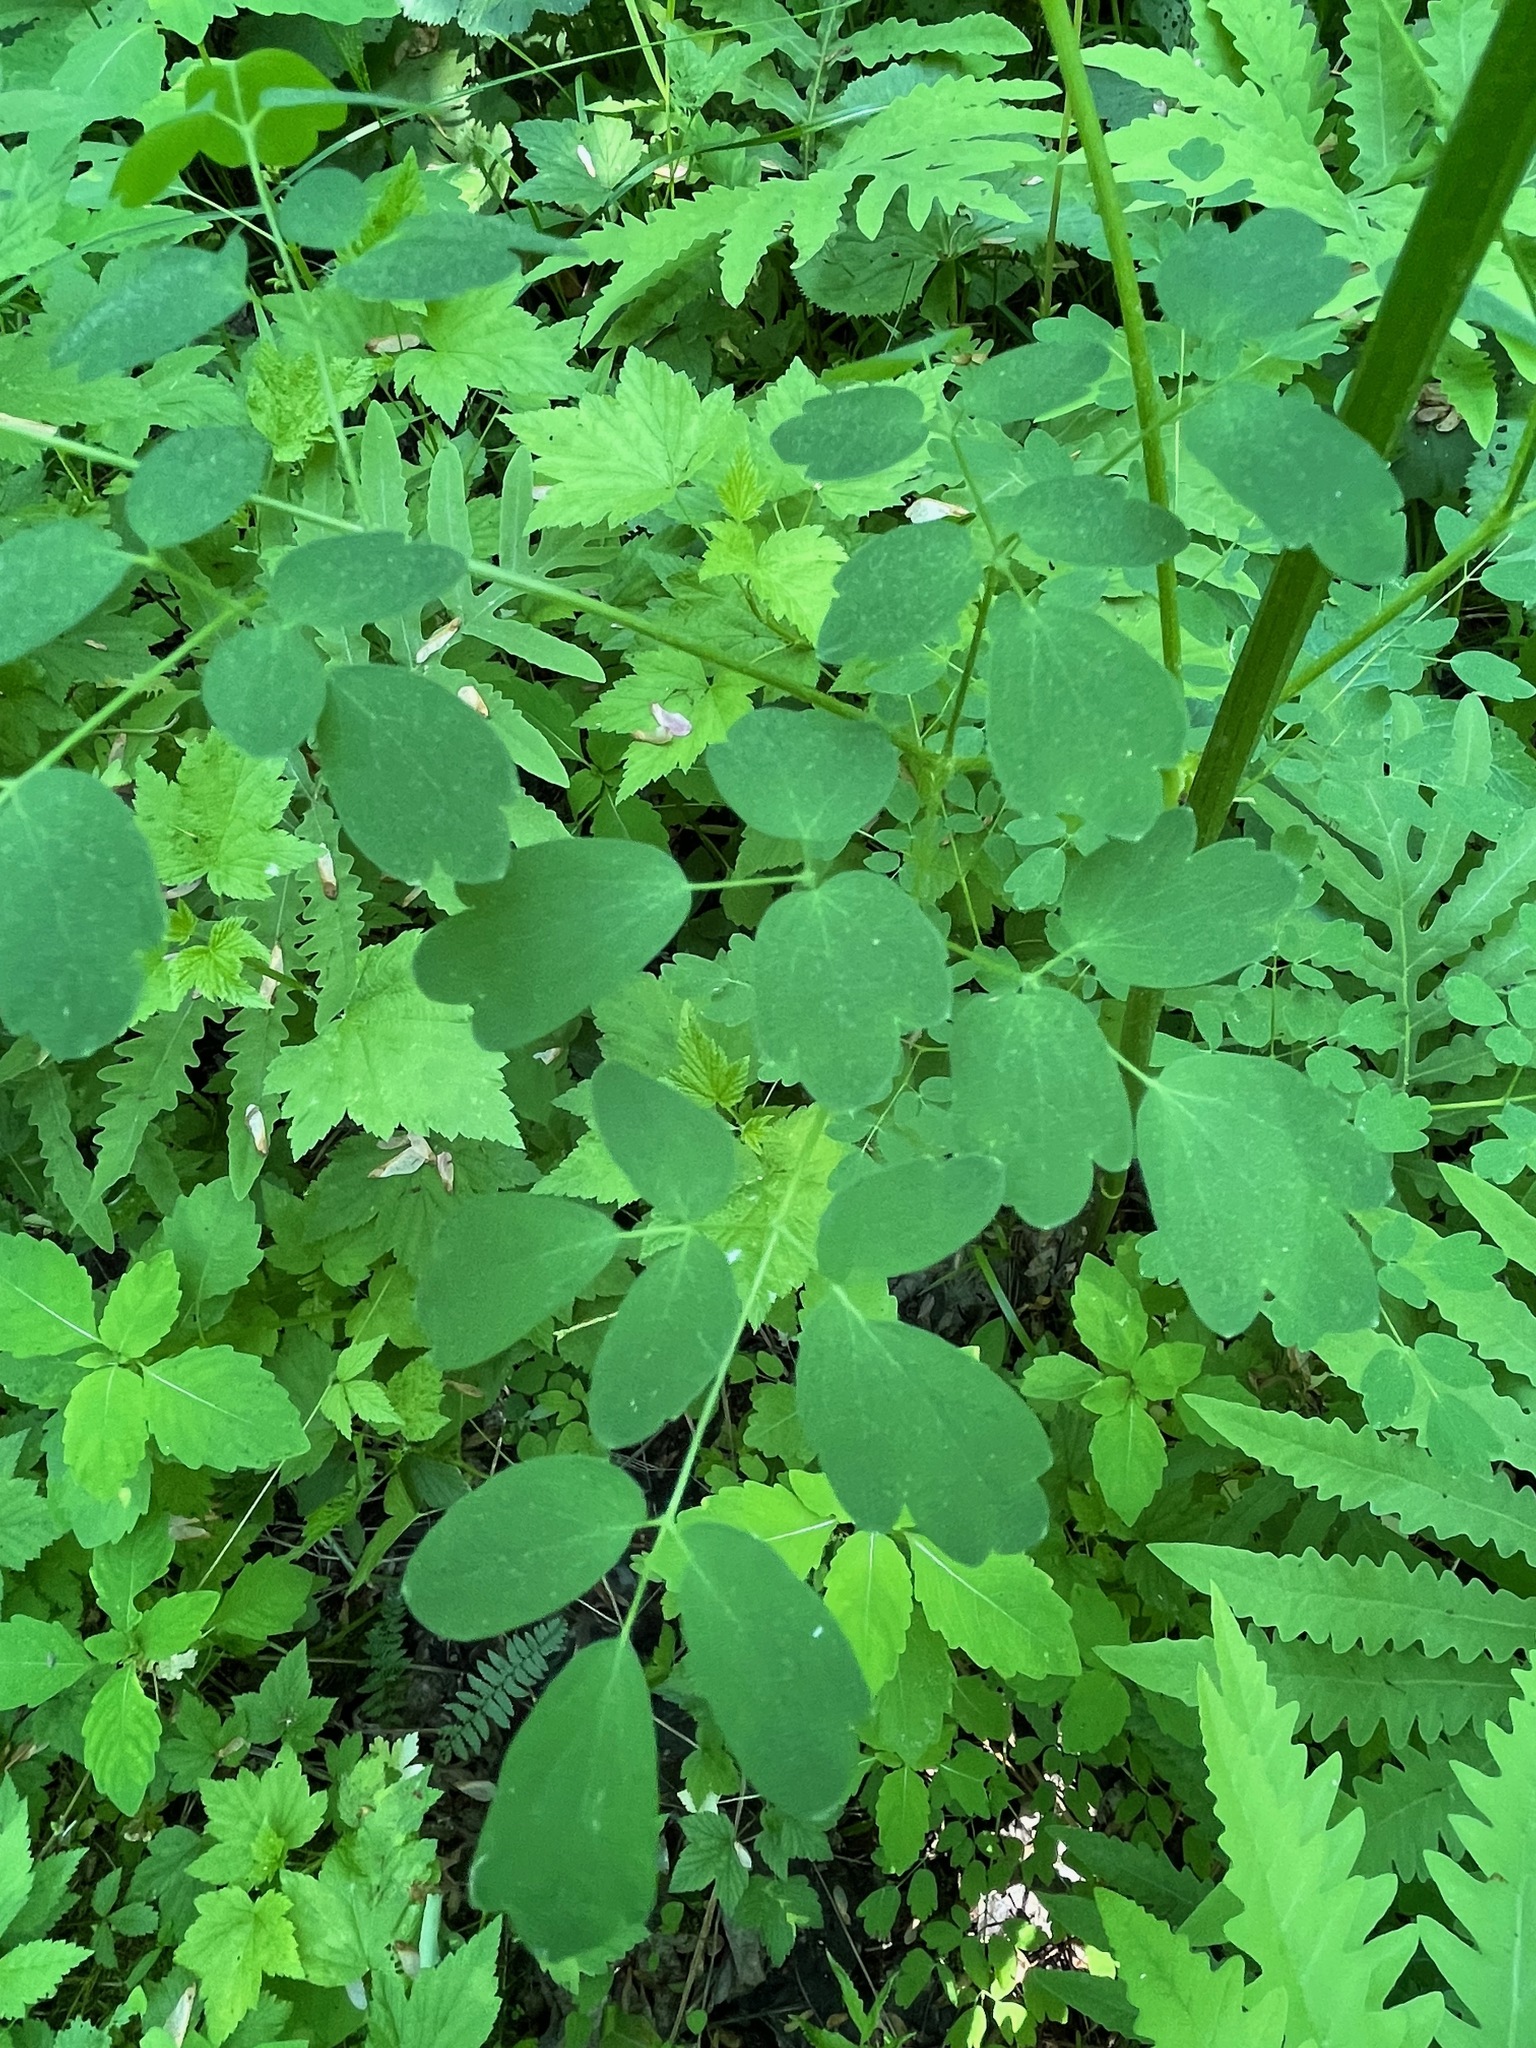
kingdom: Plantae
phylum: Tracheophyta
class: Magnoliopsida
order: Ranunculales
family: Ranunculaceae
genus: Thalictrum
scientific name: Thalictrum pubescens
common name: King-of-the-meadow
